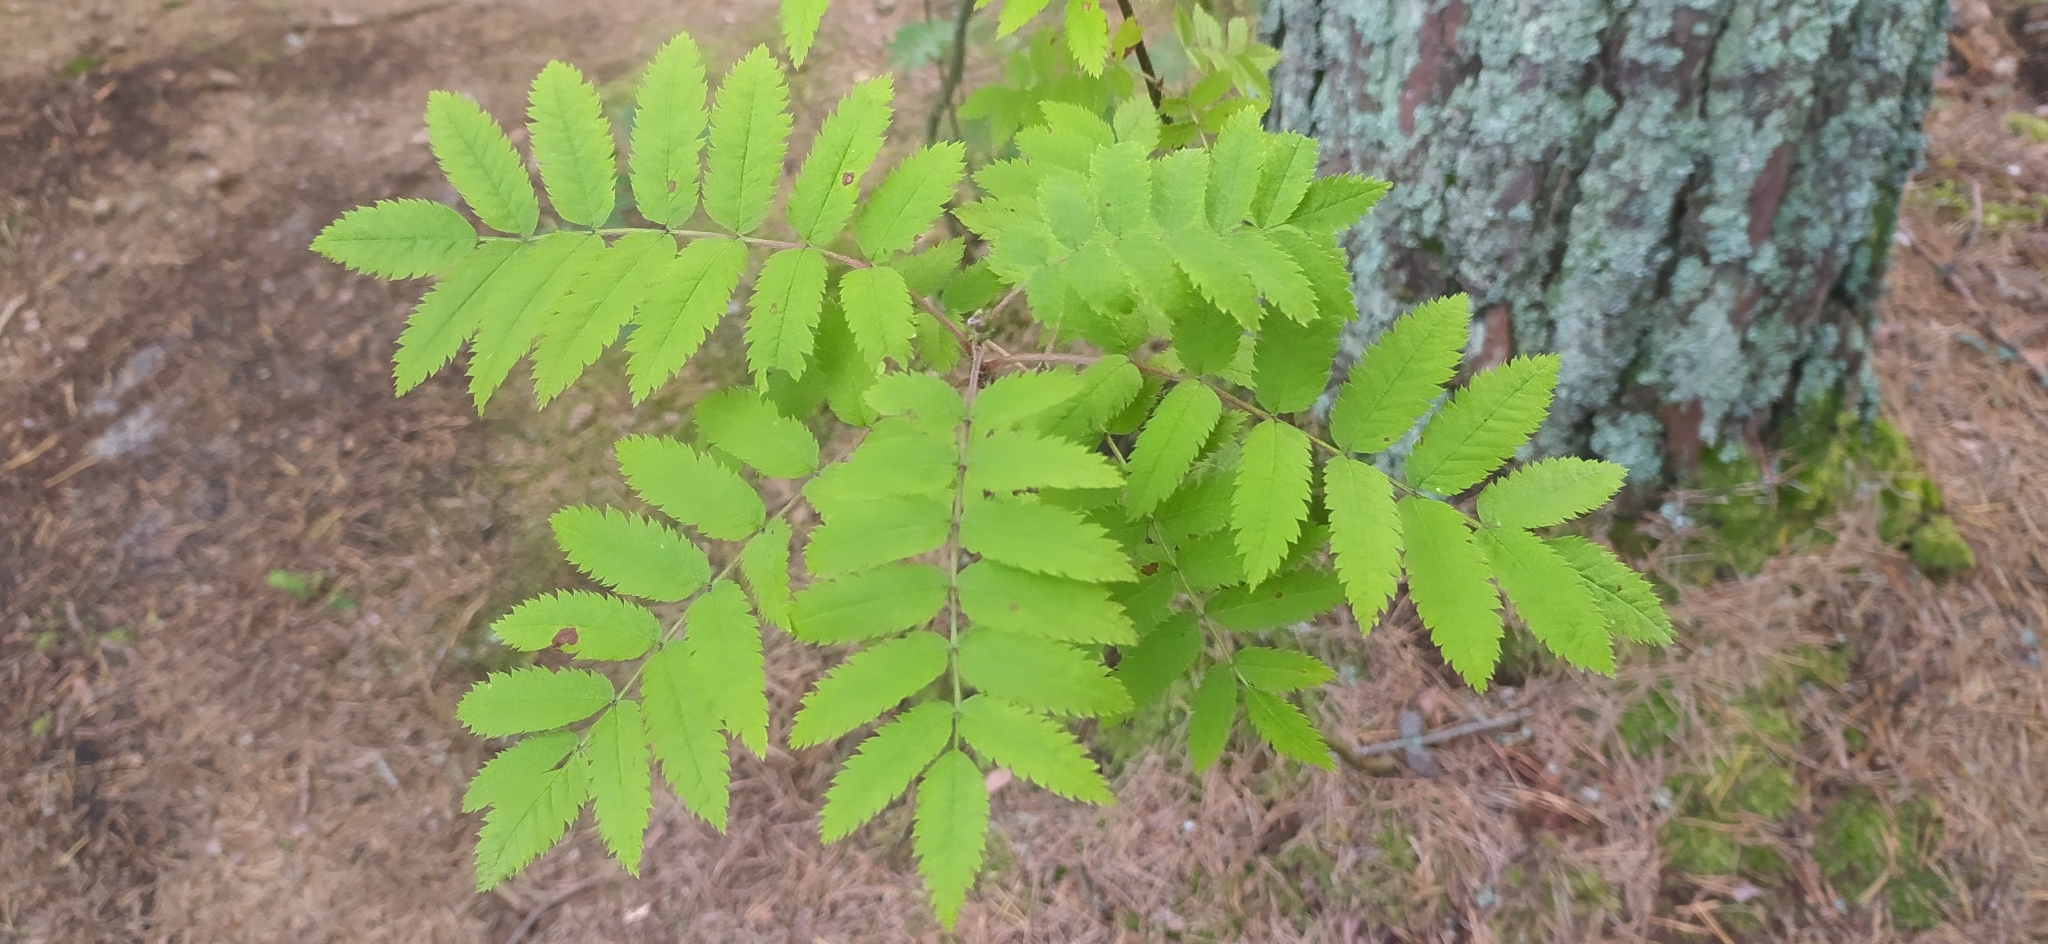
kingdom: Plantae
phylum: Tracheophyta
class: Magnoliopsida
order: Rosales
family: Rosaceae
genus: Sorbus
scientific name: Sorbus aucuparia
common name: Rowan
